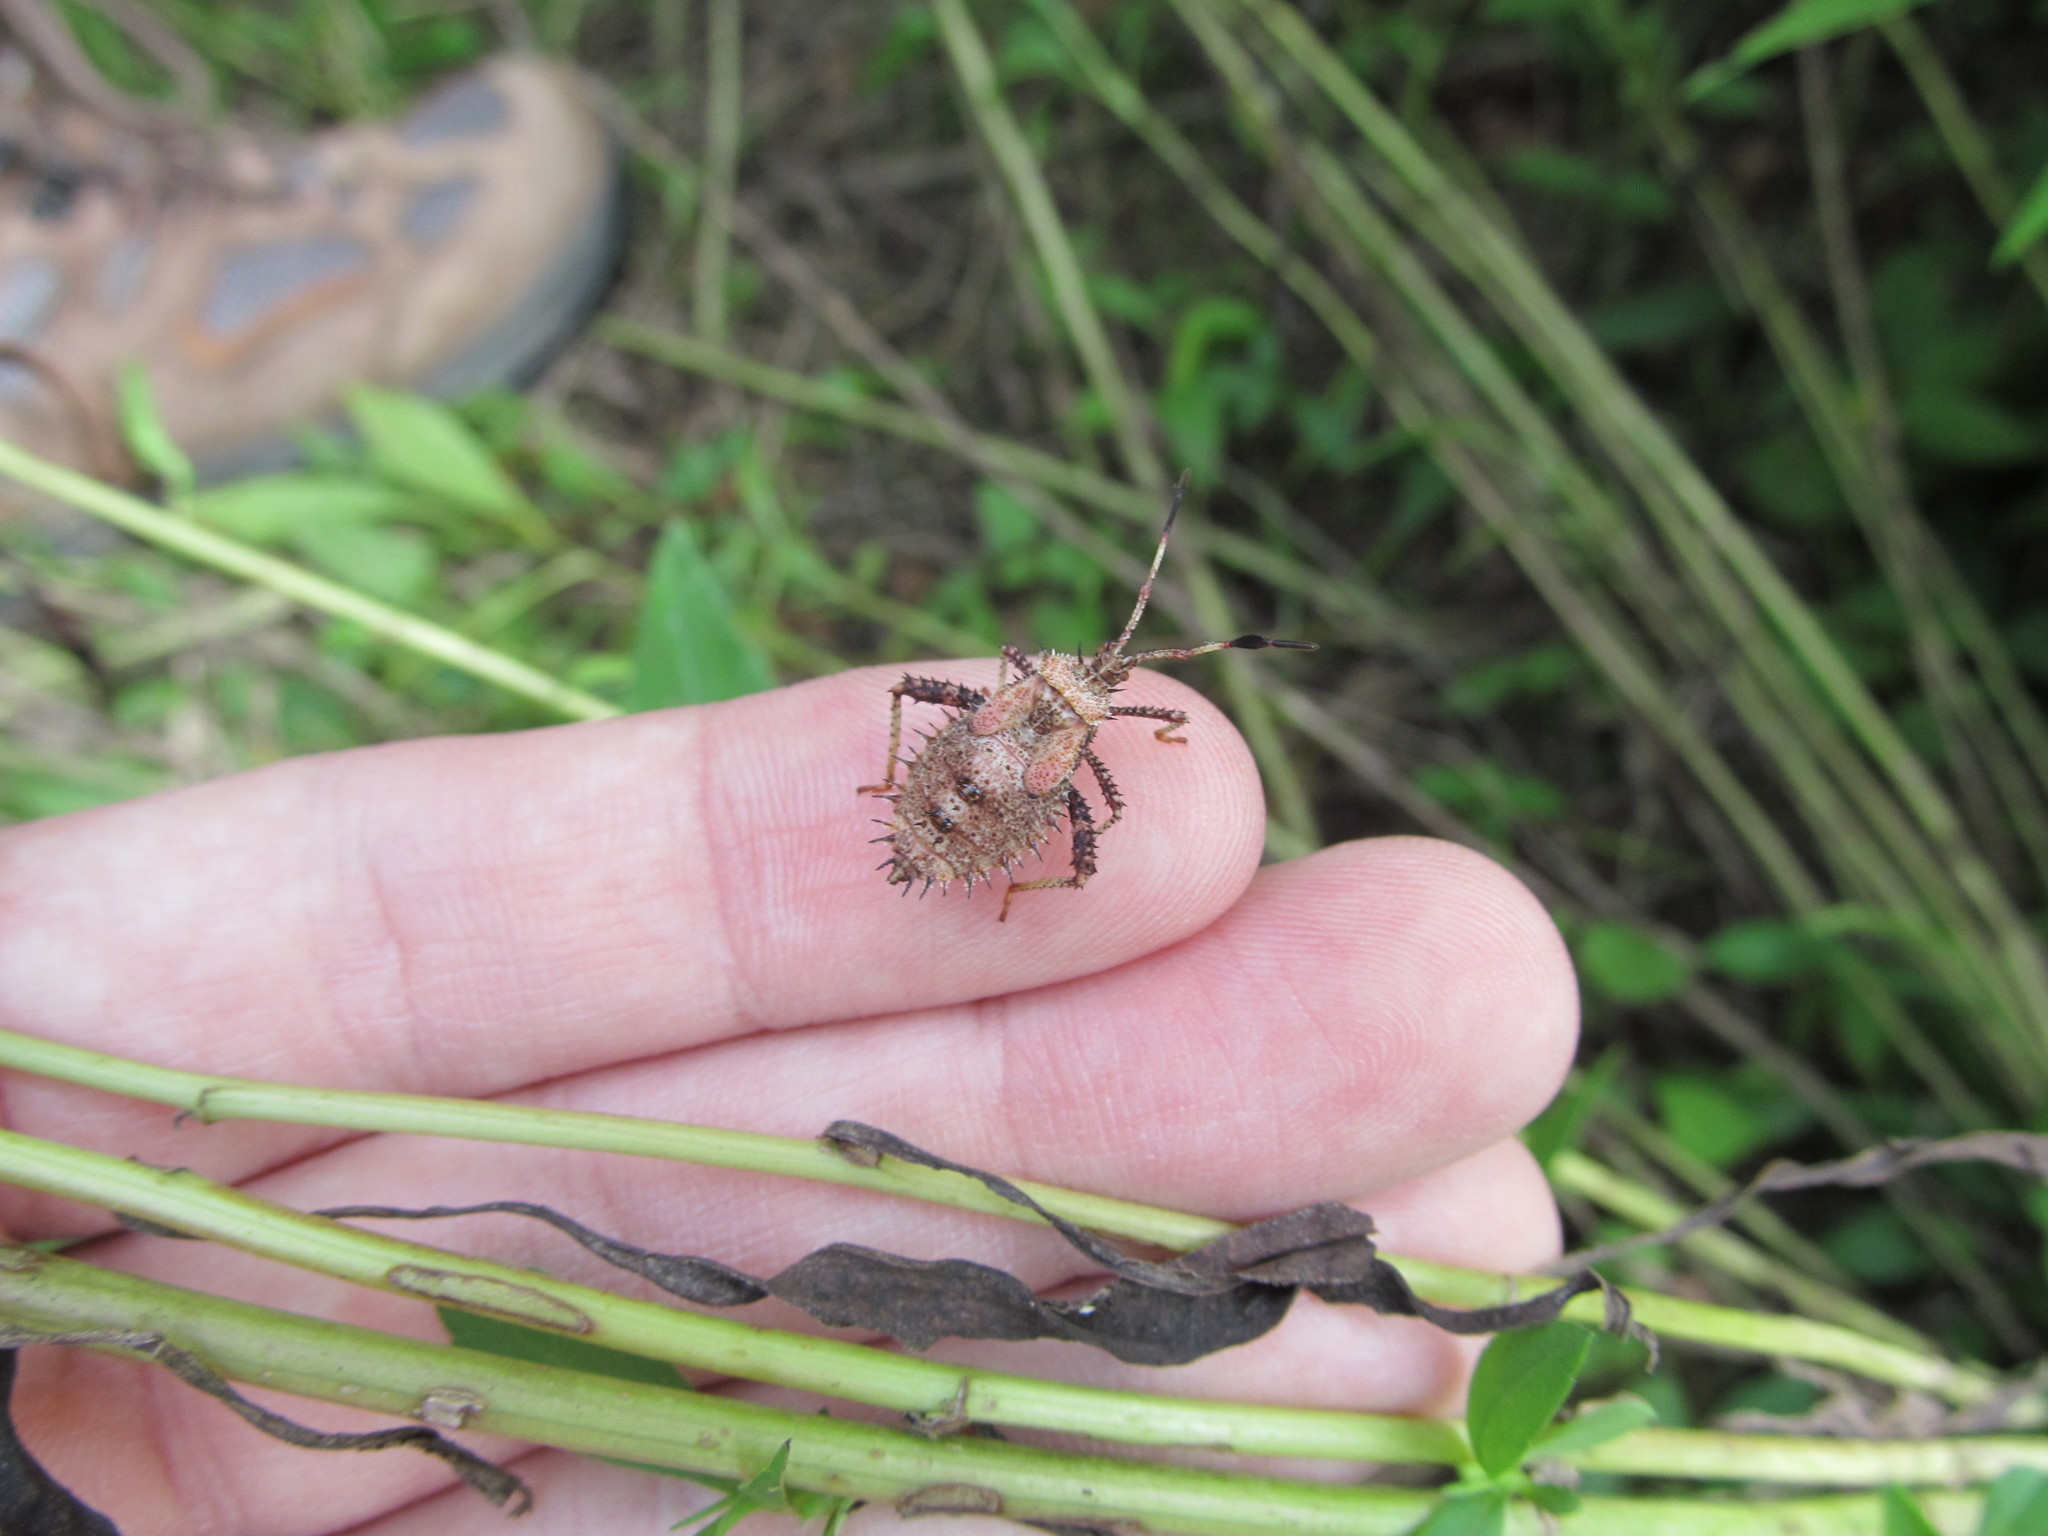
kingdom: Animalia
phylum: Arthropoda
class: Insecta
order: Hemiptera
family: Coreidae
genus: Euthochtha
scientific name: Euthochtha galeator
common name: Helmeted squash bug
